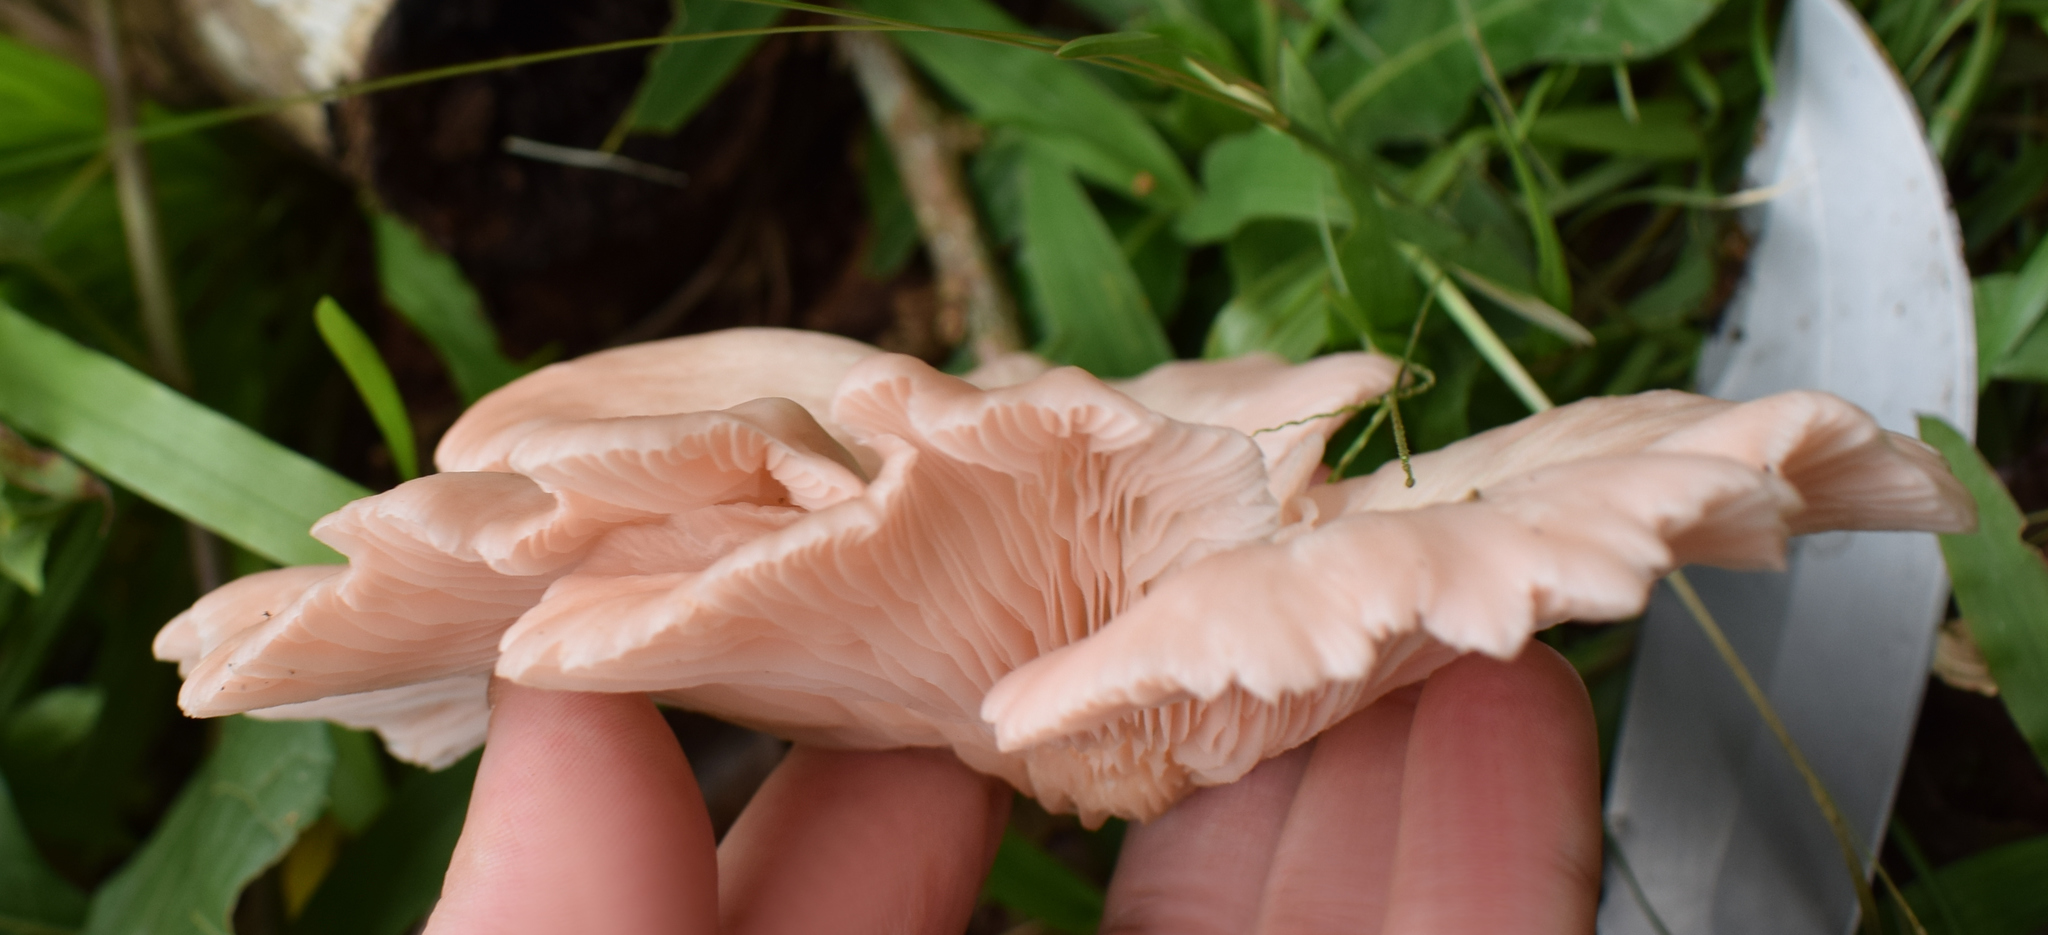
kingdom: Fungi
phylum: Basidiomycota
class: Agaricomycetes
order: Agaricales
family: Pleurotaceae
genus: Pleurotus
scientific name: Pleurotus djamor
